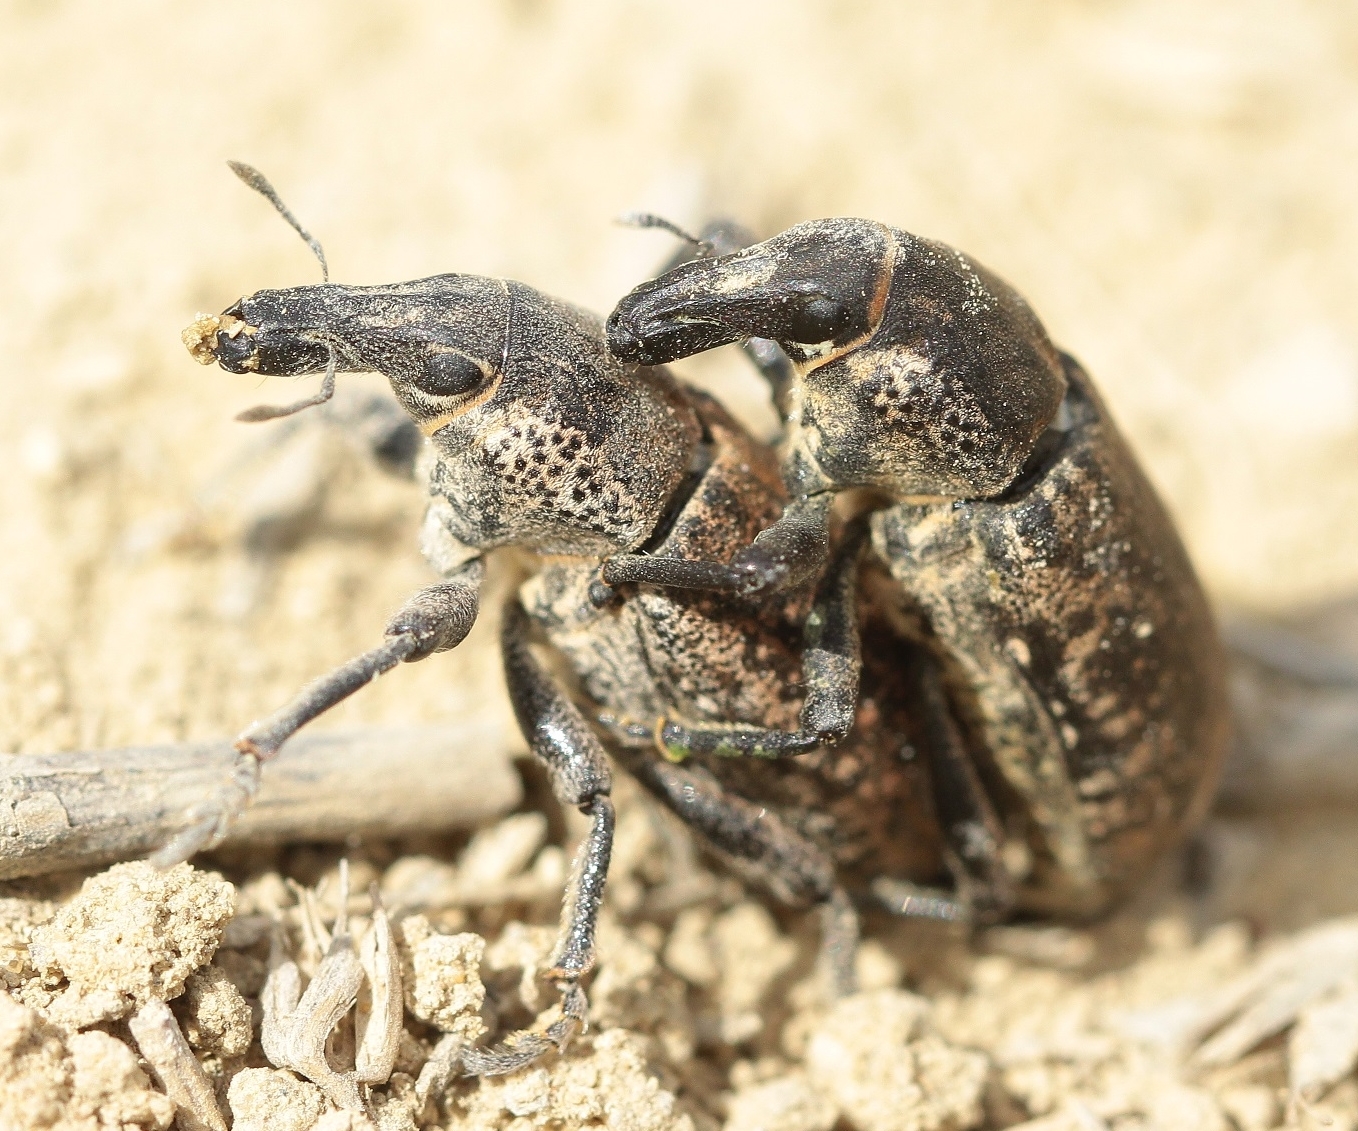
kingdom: Animalia
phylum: Arthropoda
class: Insecta
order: Coleoptera
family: Curculionidae
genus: Maximus
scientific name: Maximus strabus
